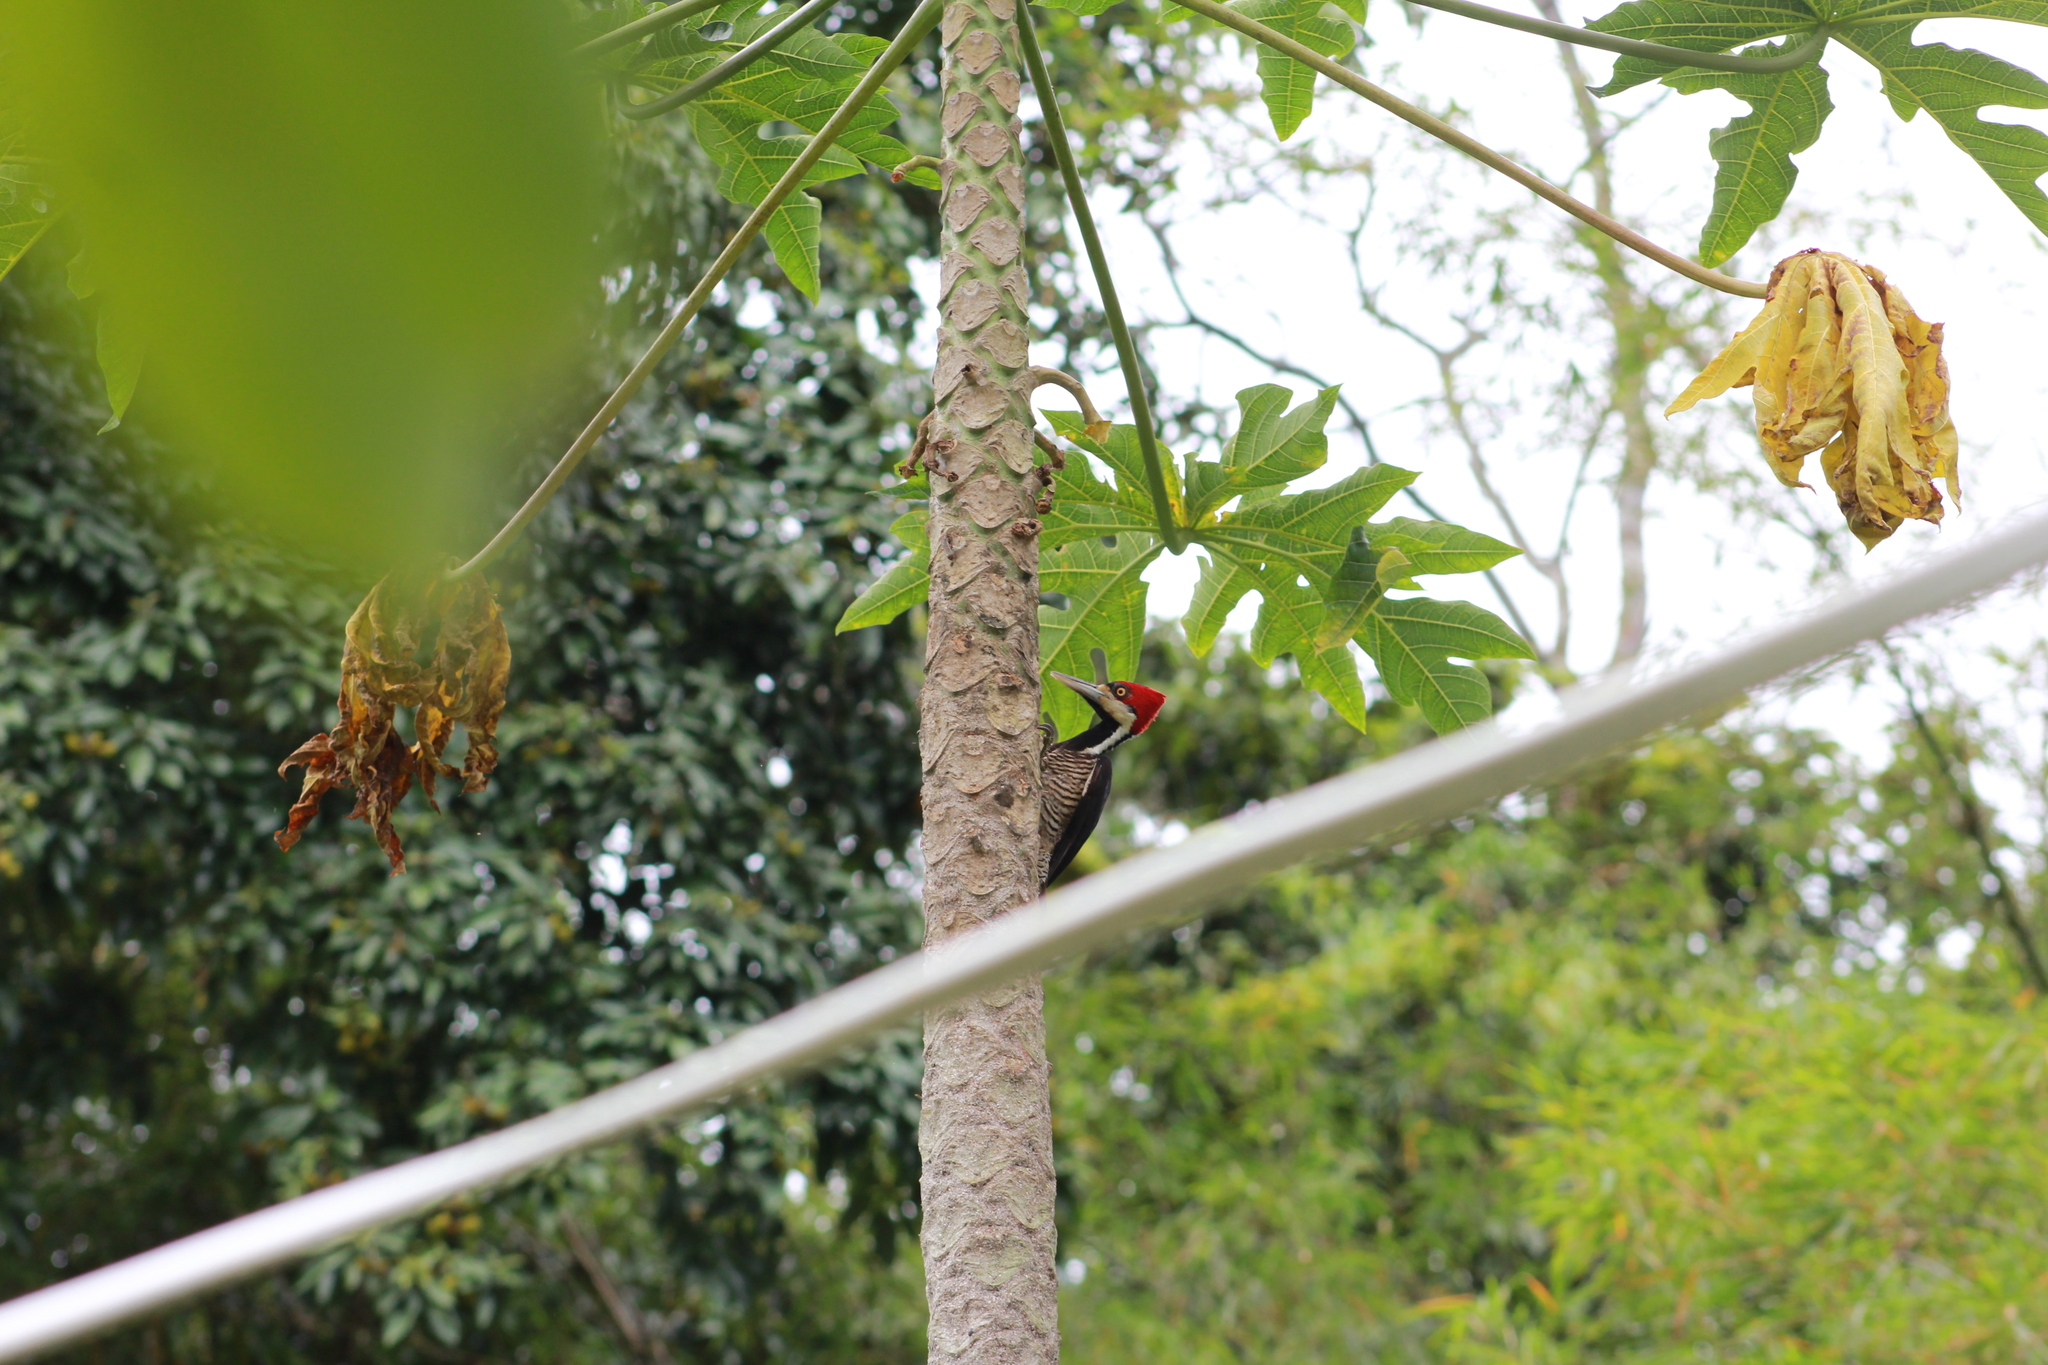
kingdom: Animalia
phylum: Chordata
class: Aves
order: Piciformes
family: Picidae
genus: Campephilus
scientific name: Campephilus melanoleucos
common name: Crimson-crested woodpecker
